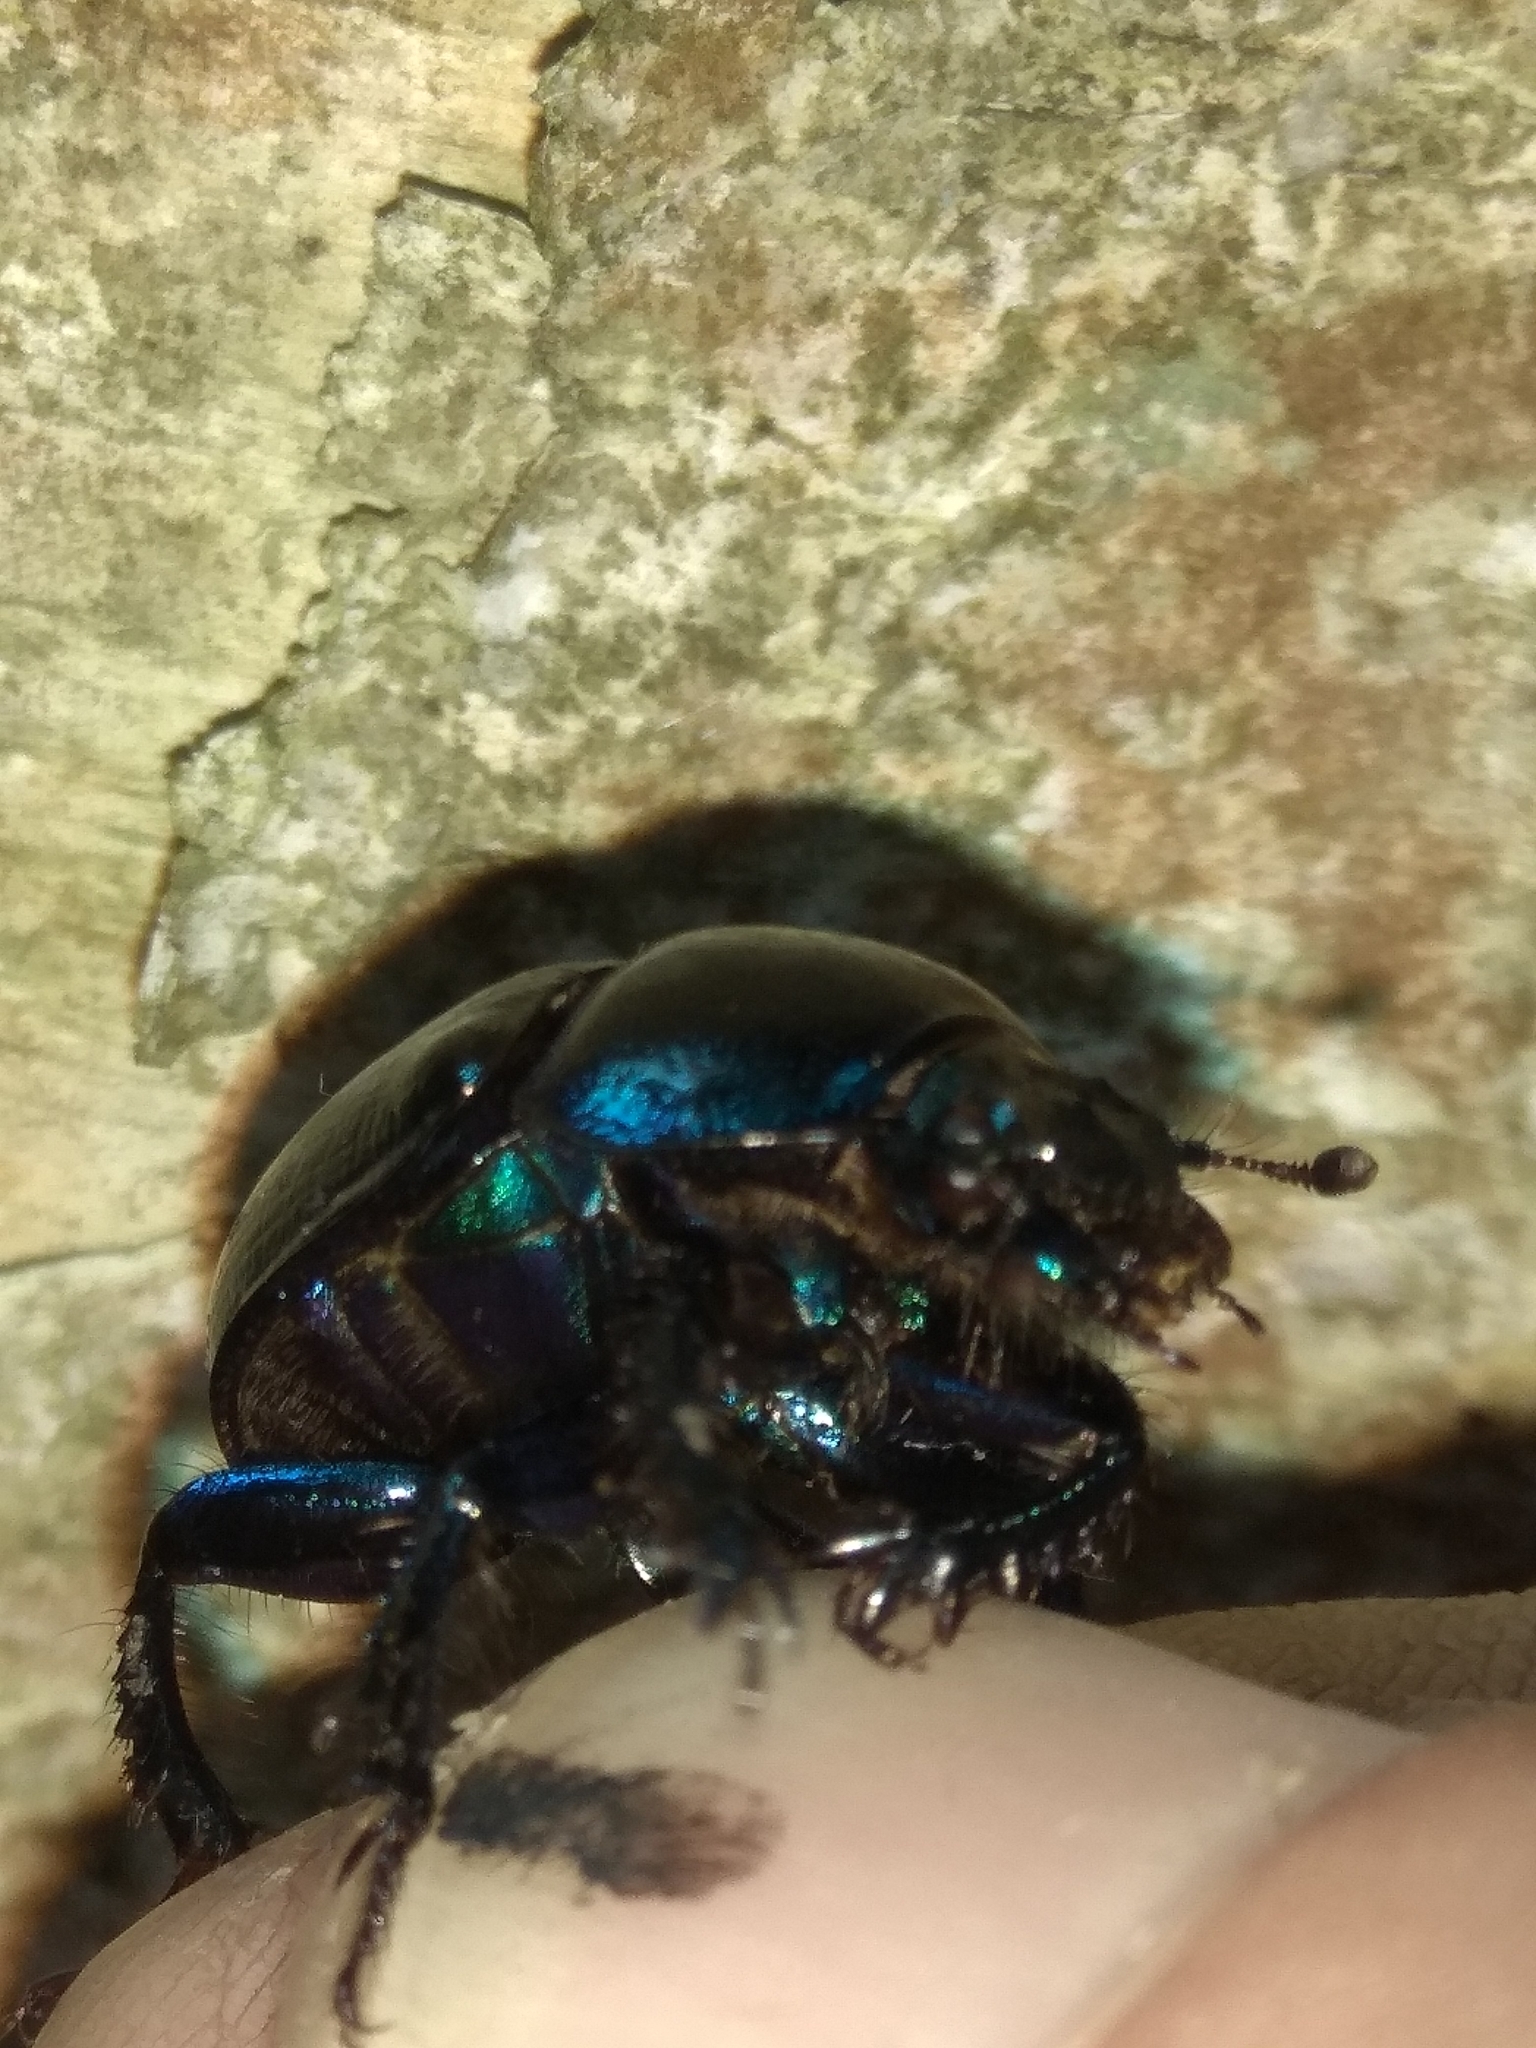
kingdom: Animalia
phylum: Arthropoda
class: Insecta
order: Coleoptera
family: Geotrupidae
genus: Anoplotrupes
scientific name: Anoplotrupes stercorosus
